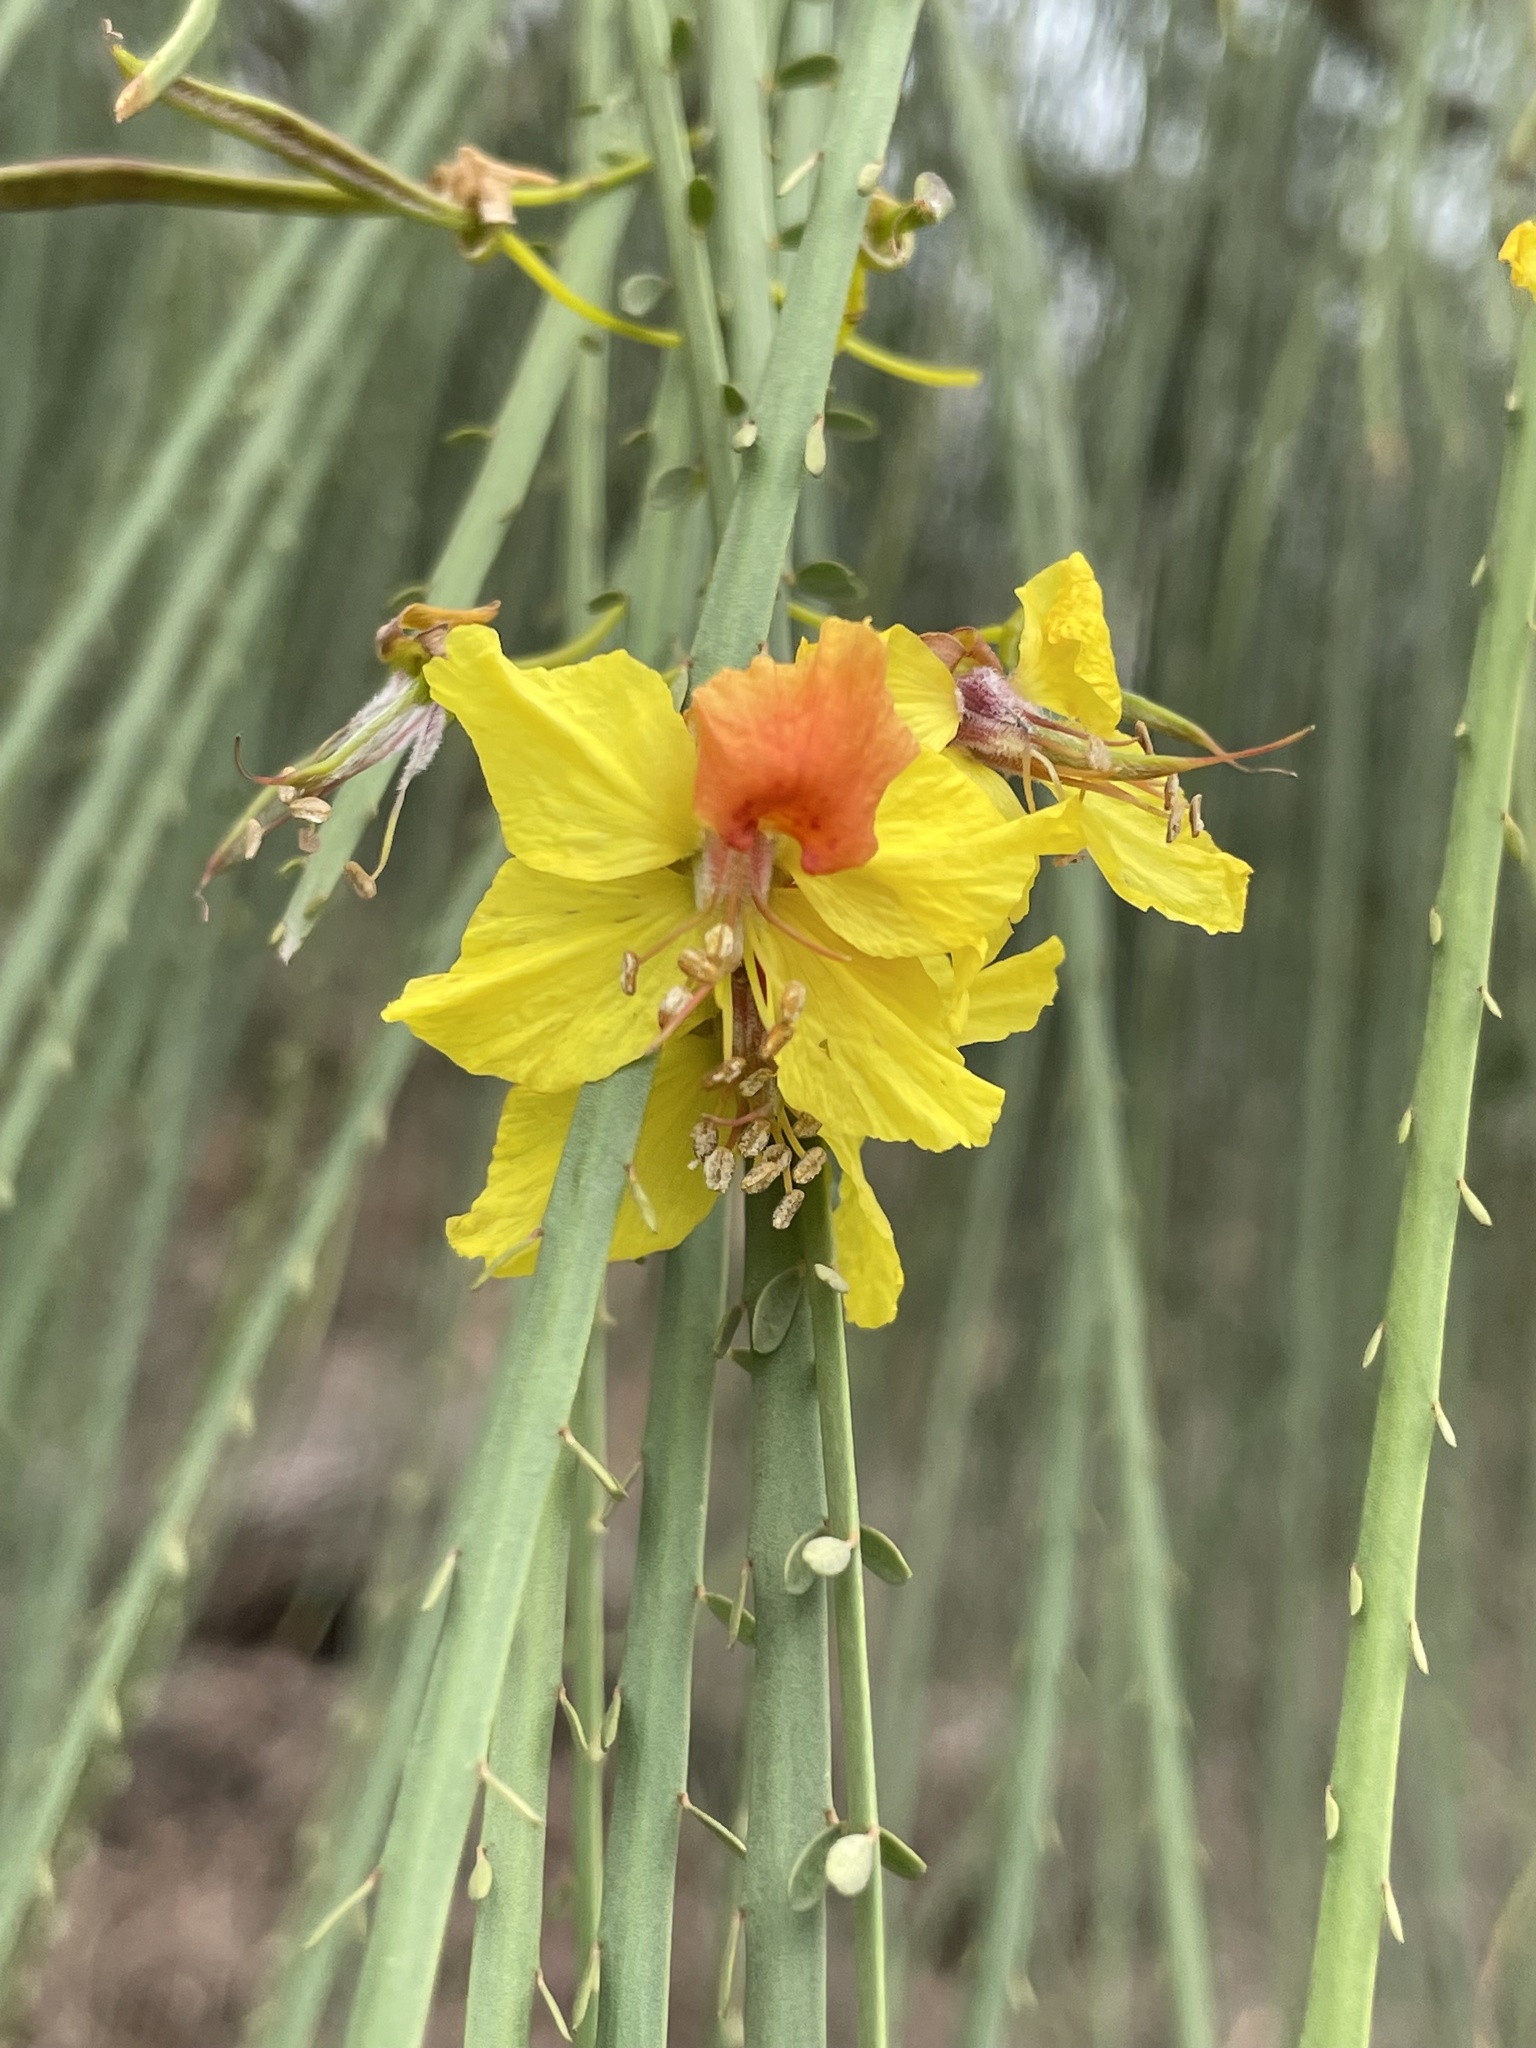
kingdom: Plantae
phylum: Tracheophyta
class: Magnoliopsida
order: Fabales
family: Fabaceae
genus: Parkinsonia
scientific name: Parkinsonia aculeata
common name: Jerusalem thorn
